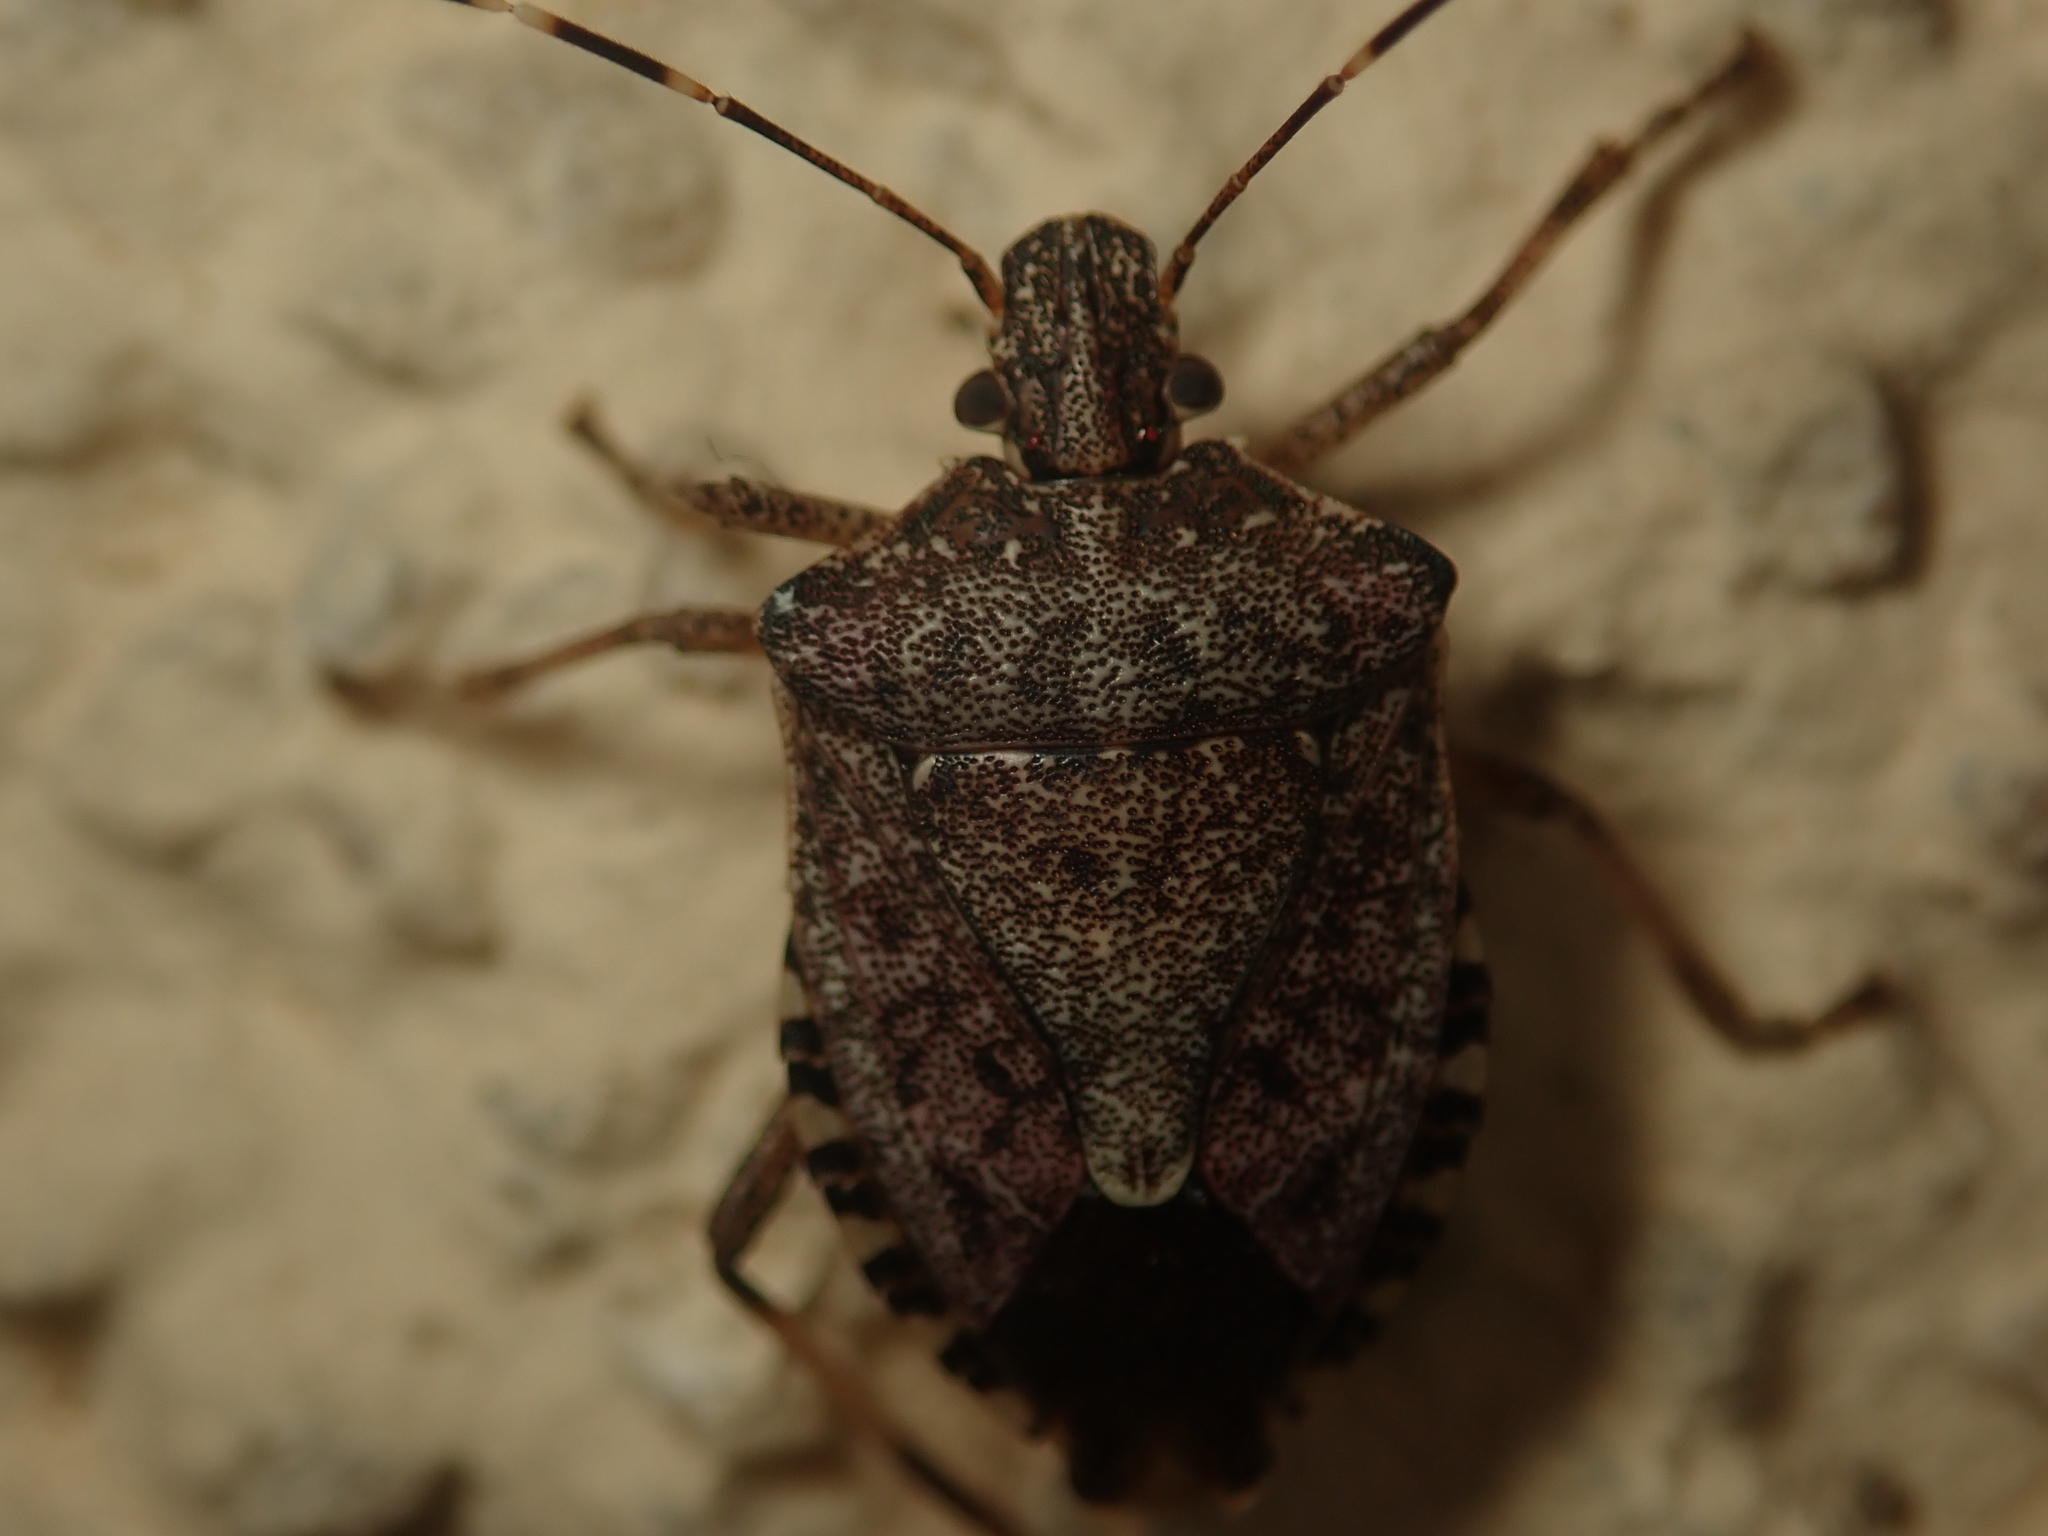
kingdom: Animalia
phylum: Arthropoda
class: Insecta
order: Hemiptera
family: Pentatomidae
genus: Halyomorpha
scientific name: Halyomorpha halys
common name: Brown marmorated stink bug
